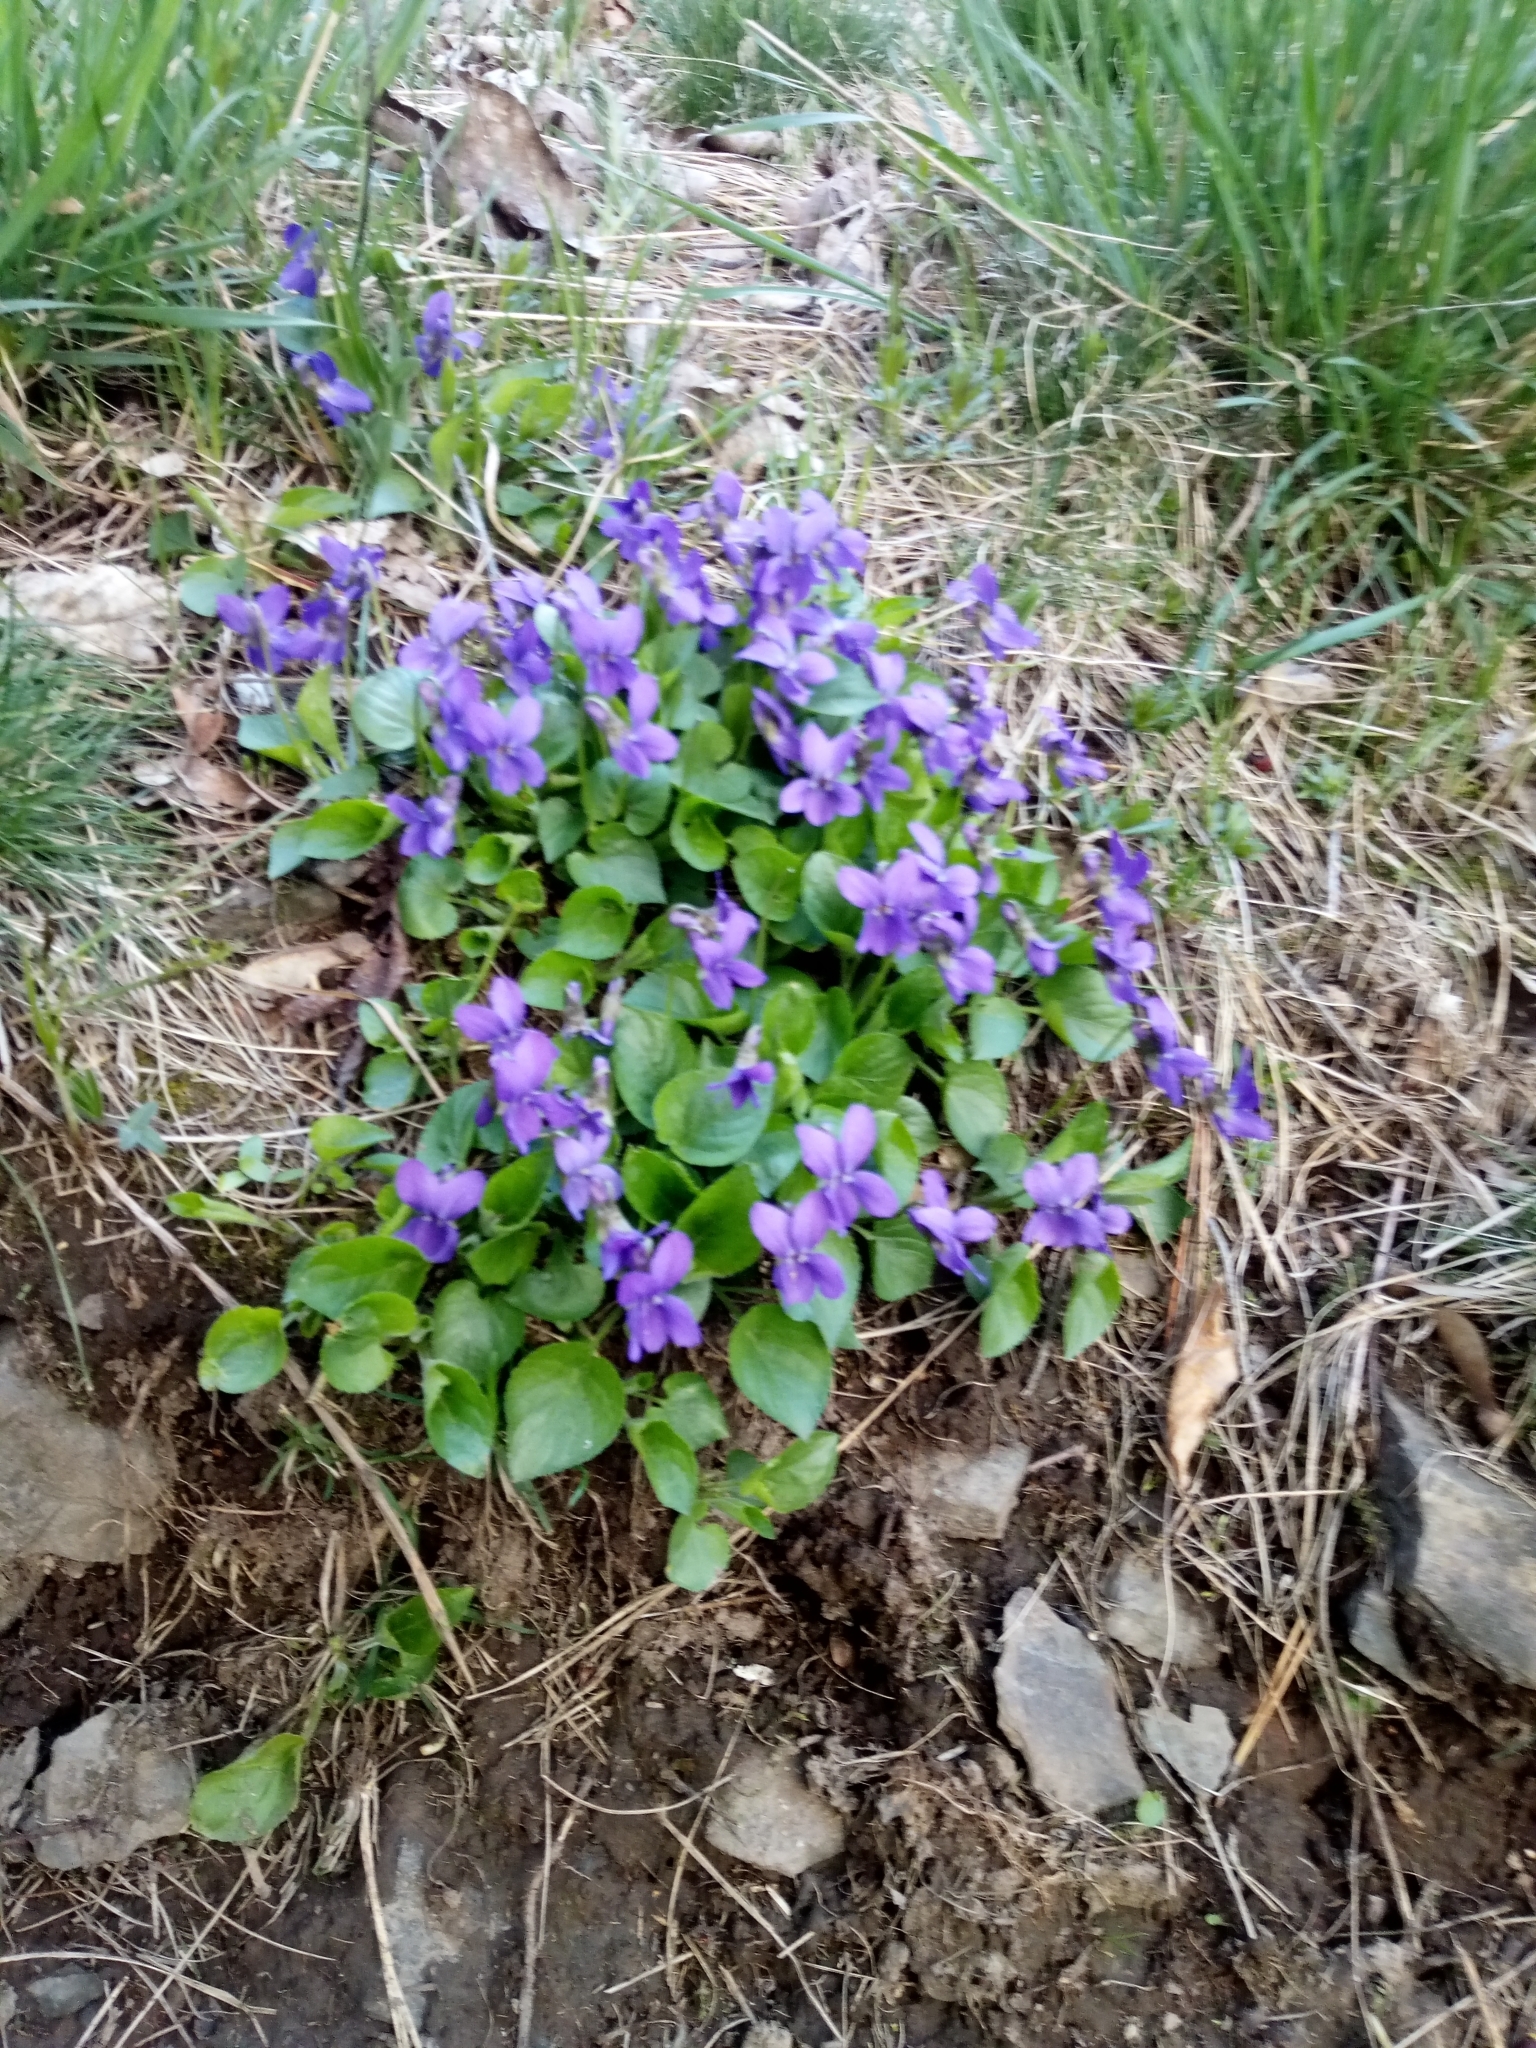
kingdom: Plantae
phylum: Tracheophyta
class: Magnoliopsida
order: Malpighiales
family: Violaceae
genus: Viola
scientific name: Viola odorata
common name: Sweet violet
